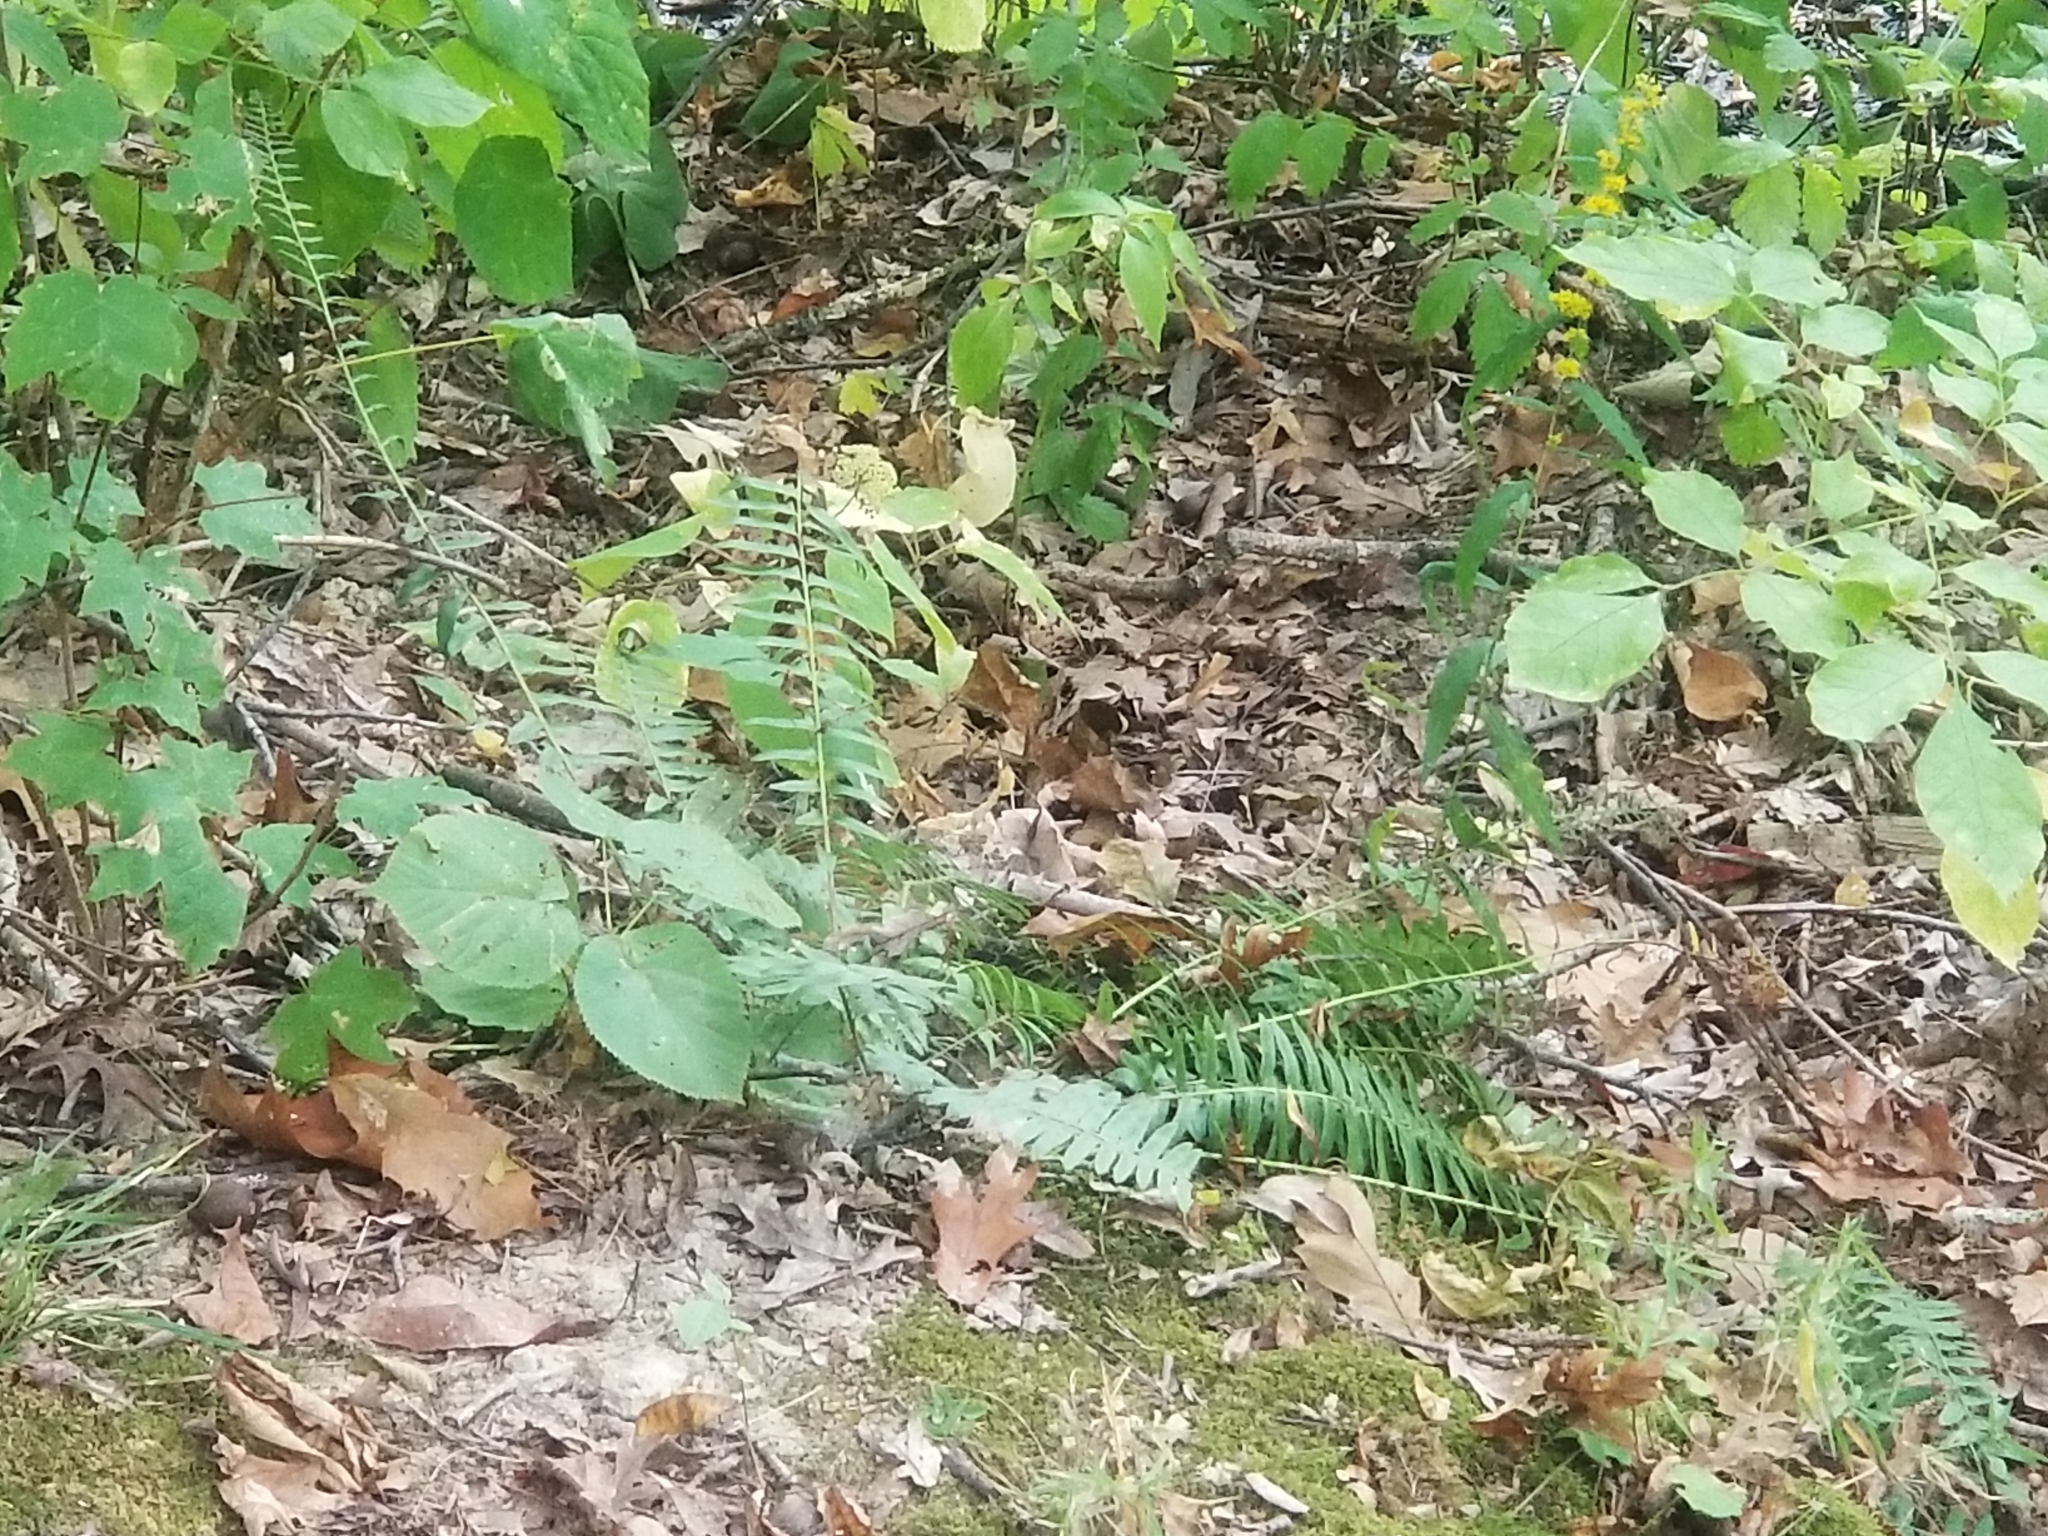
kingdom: Plantae
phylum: Tracheophyta
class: Polypodiopsida
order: Polypodiales
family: Dryopteridaceae
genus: Polystichum
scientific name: Polystichum acrostichoides
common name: Christmas fern
